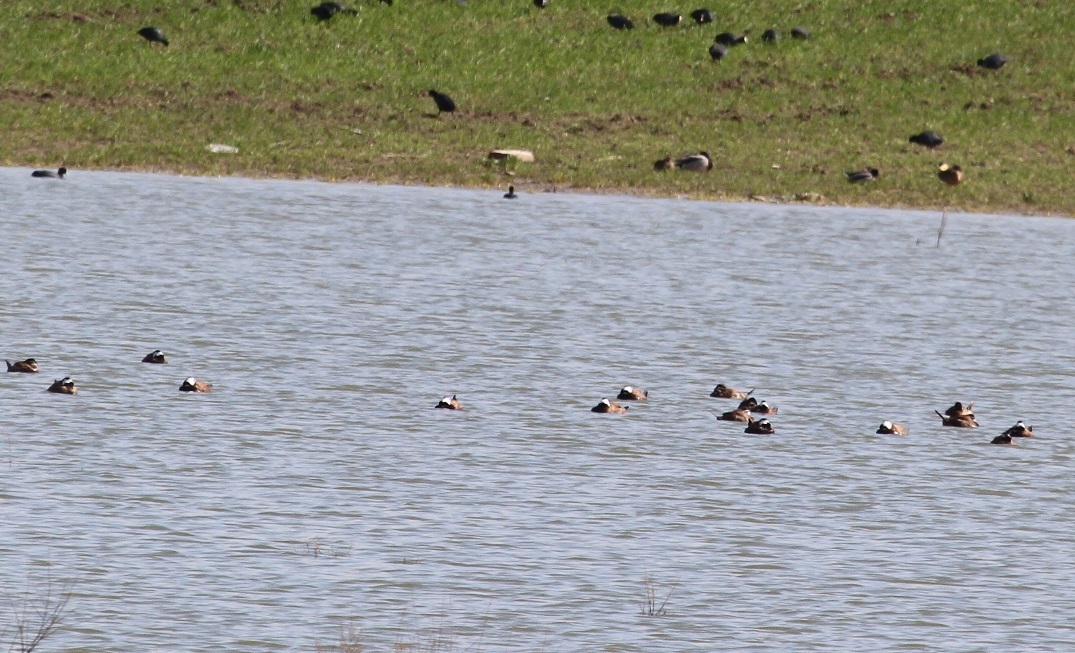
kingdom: Animalia
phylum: Chordata
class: Aves
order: Anseriformes
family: Anatidae
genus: Oxyura
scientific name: Oxyura leucocephala
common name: White-headed duck
